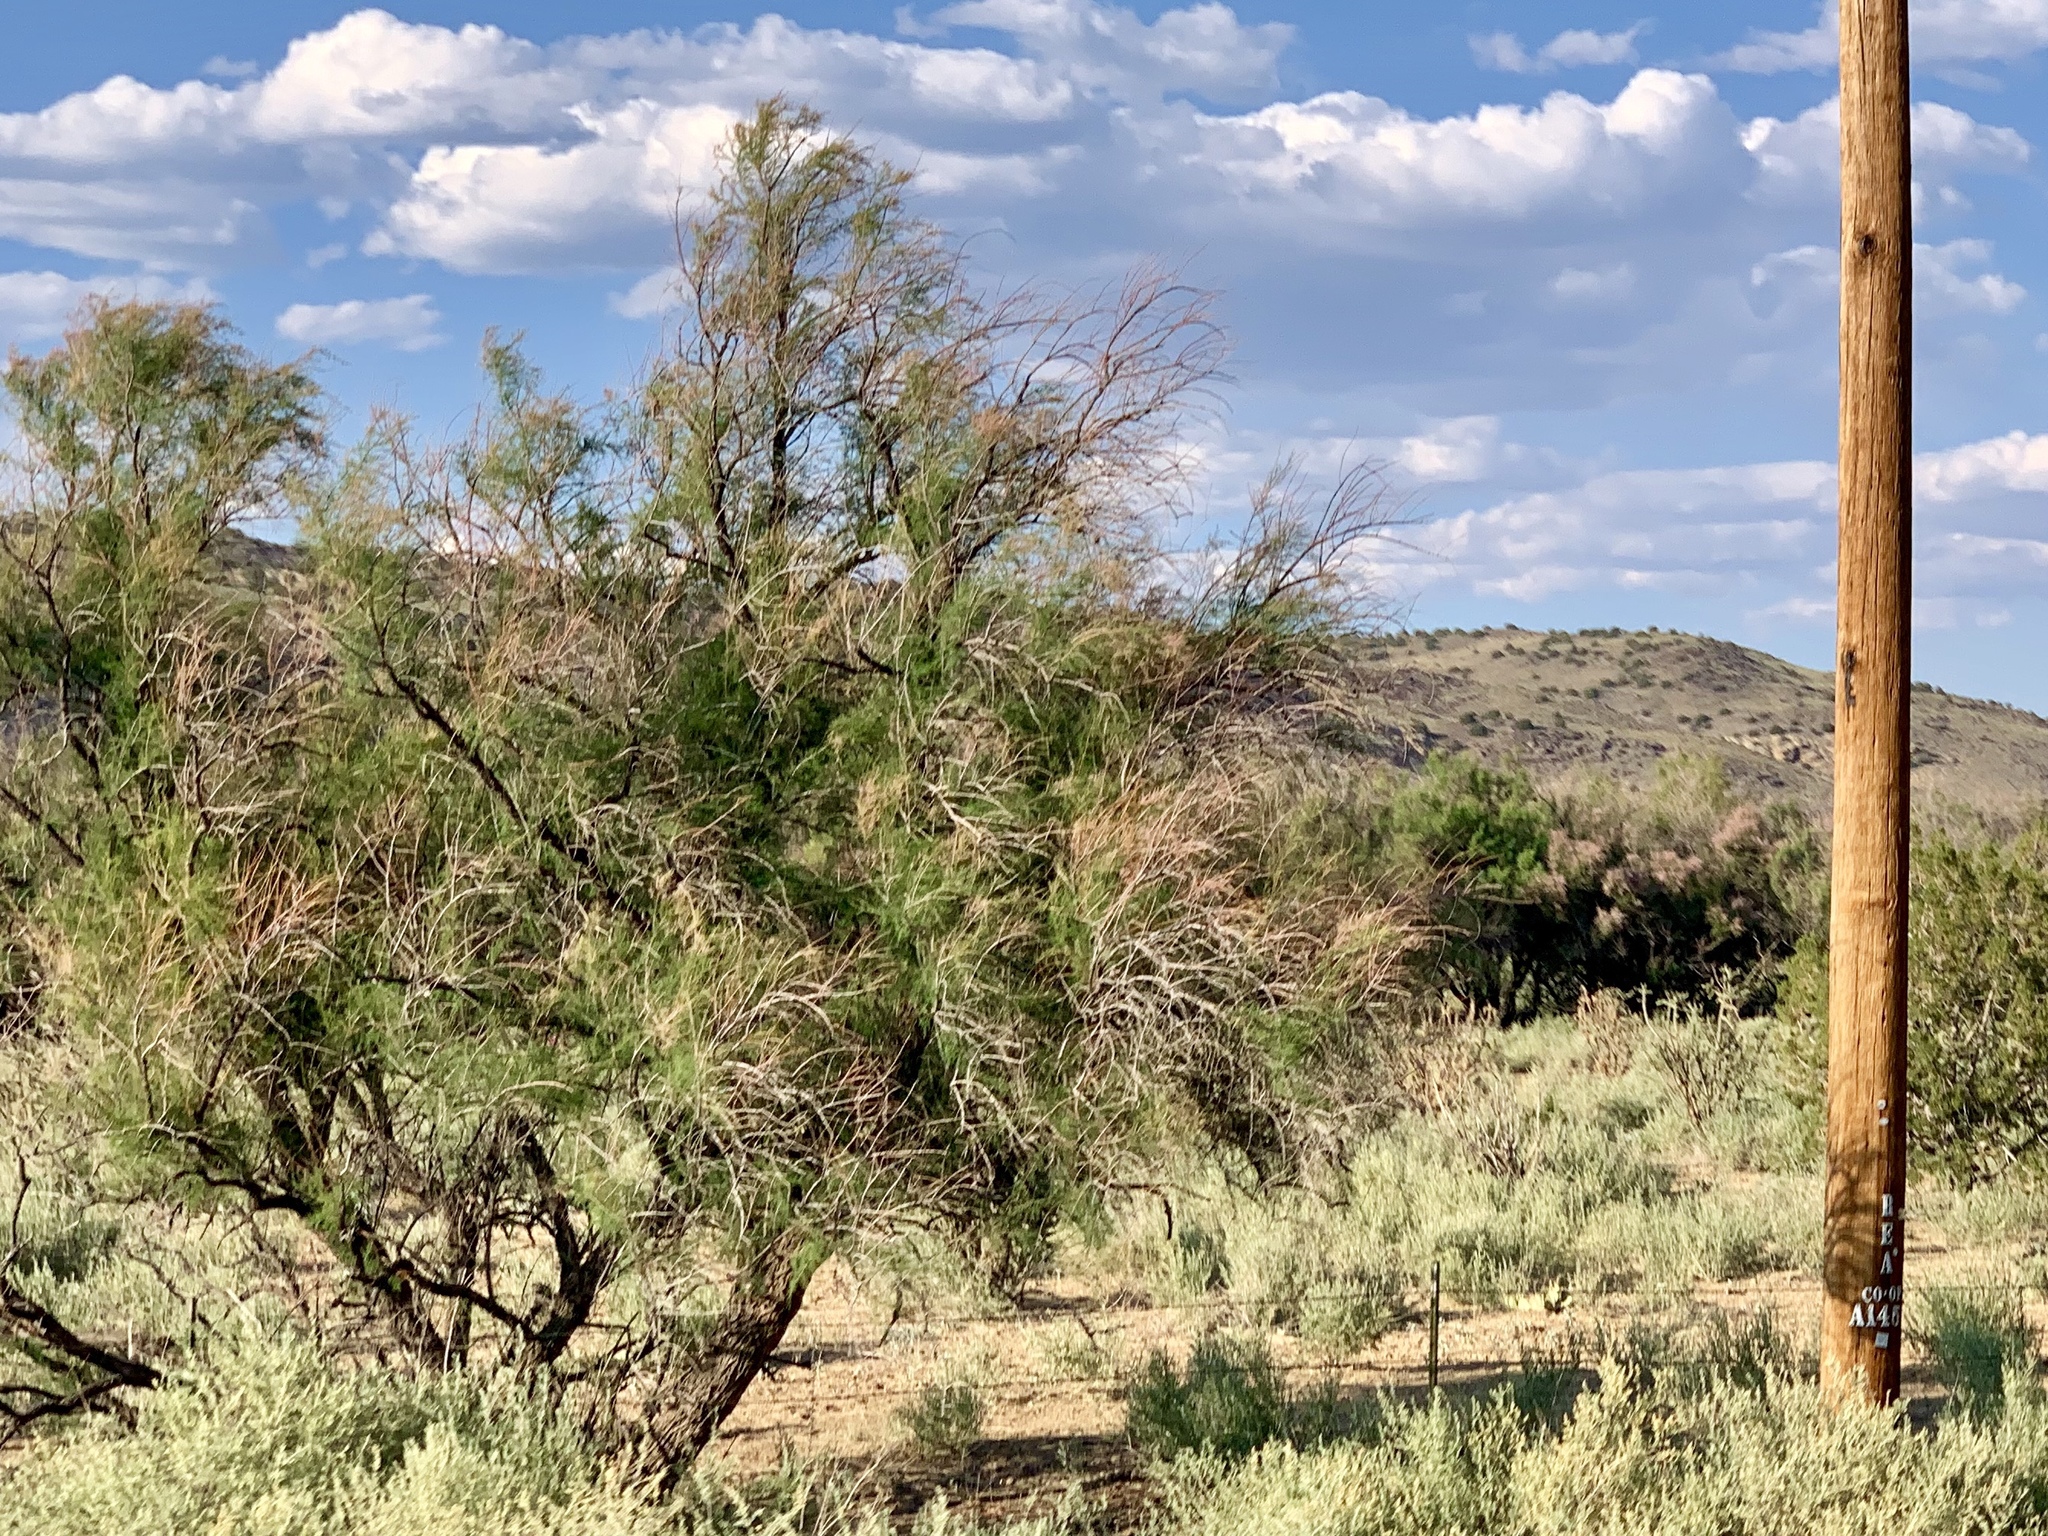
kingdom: Plantae
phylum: Tracheophyta
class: Magnoliopsida
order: Caryophyllales
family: Tamaricaceae
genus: Tamarix
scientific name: Tamarix
